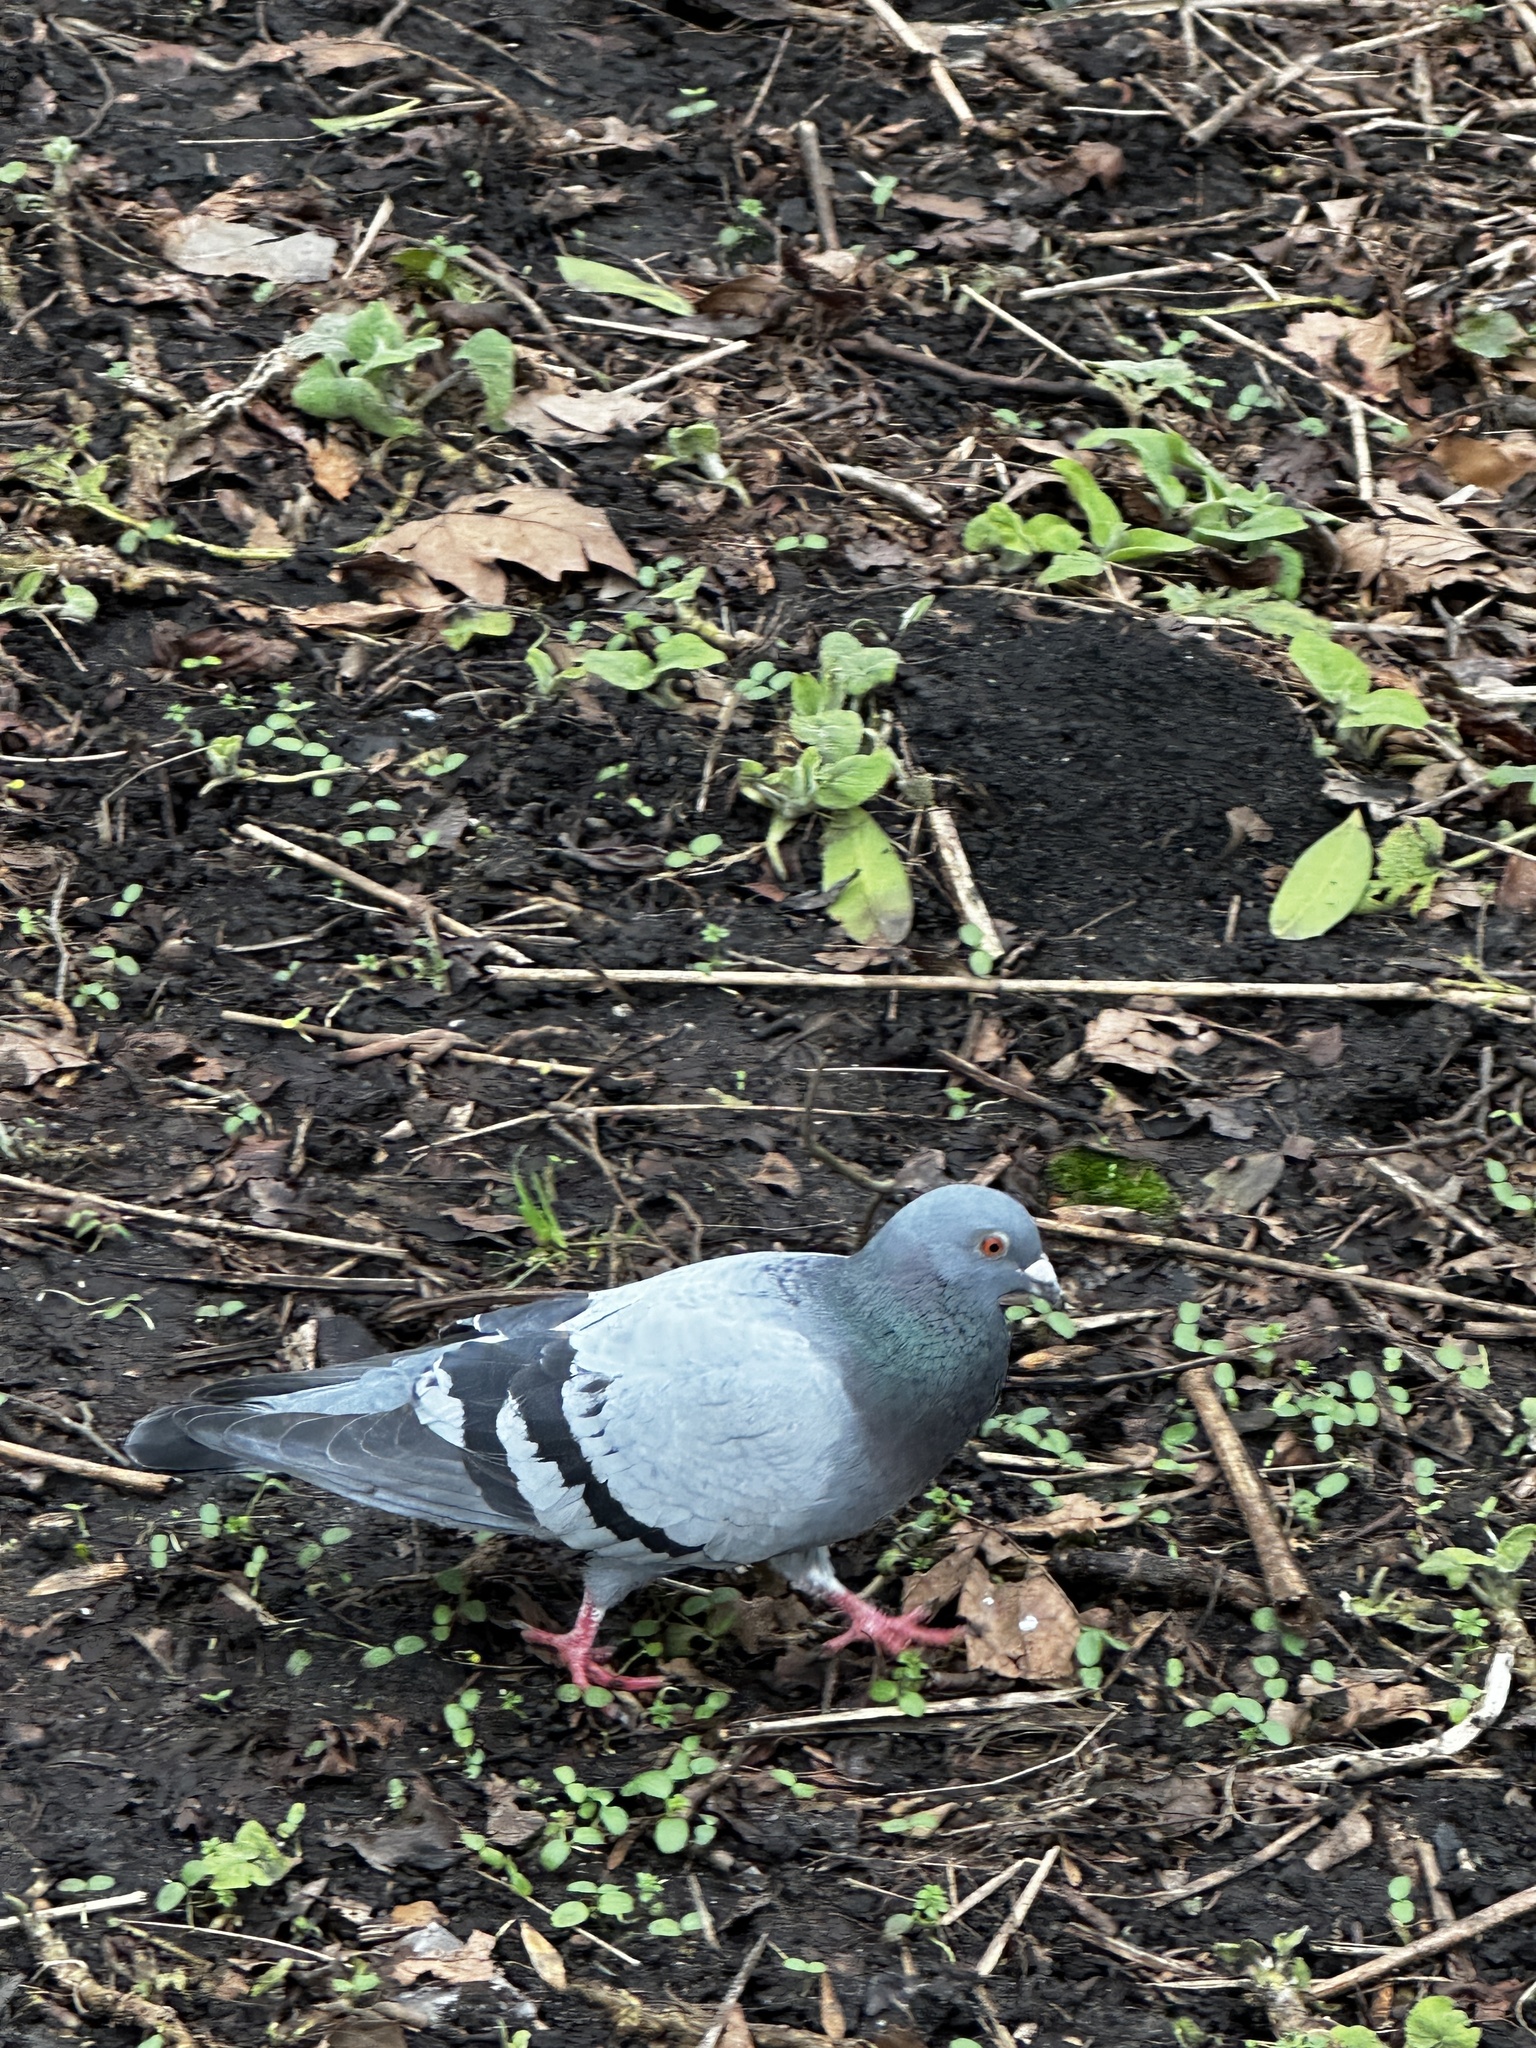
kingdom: Animalia
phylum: Chordata
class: Aves
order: Columbiformes
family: Columbidae
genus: Columba
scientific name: Columba livia
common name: Rock pigeon
